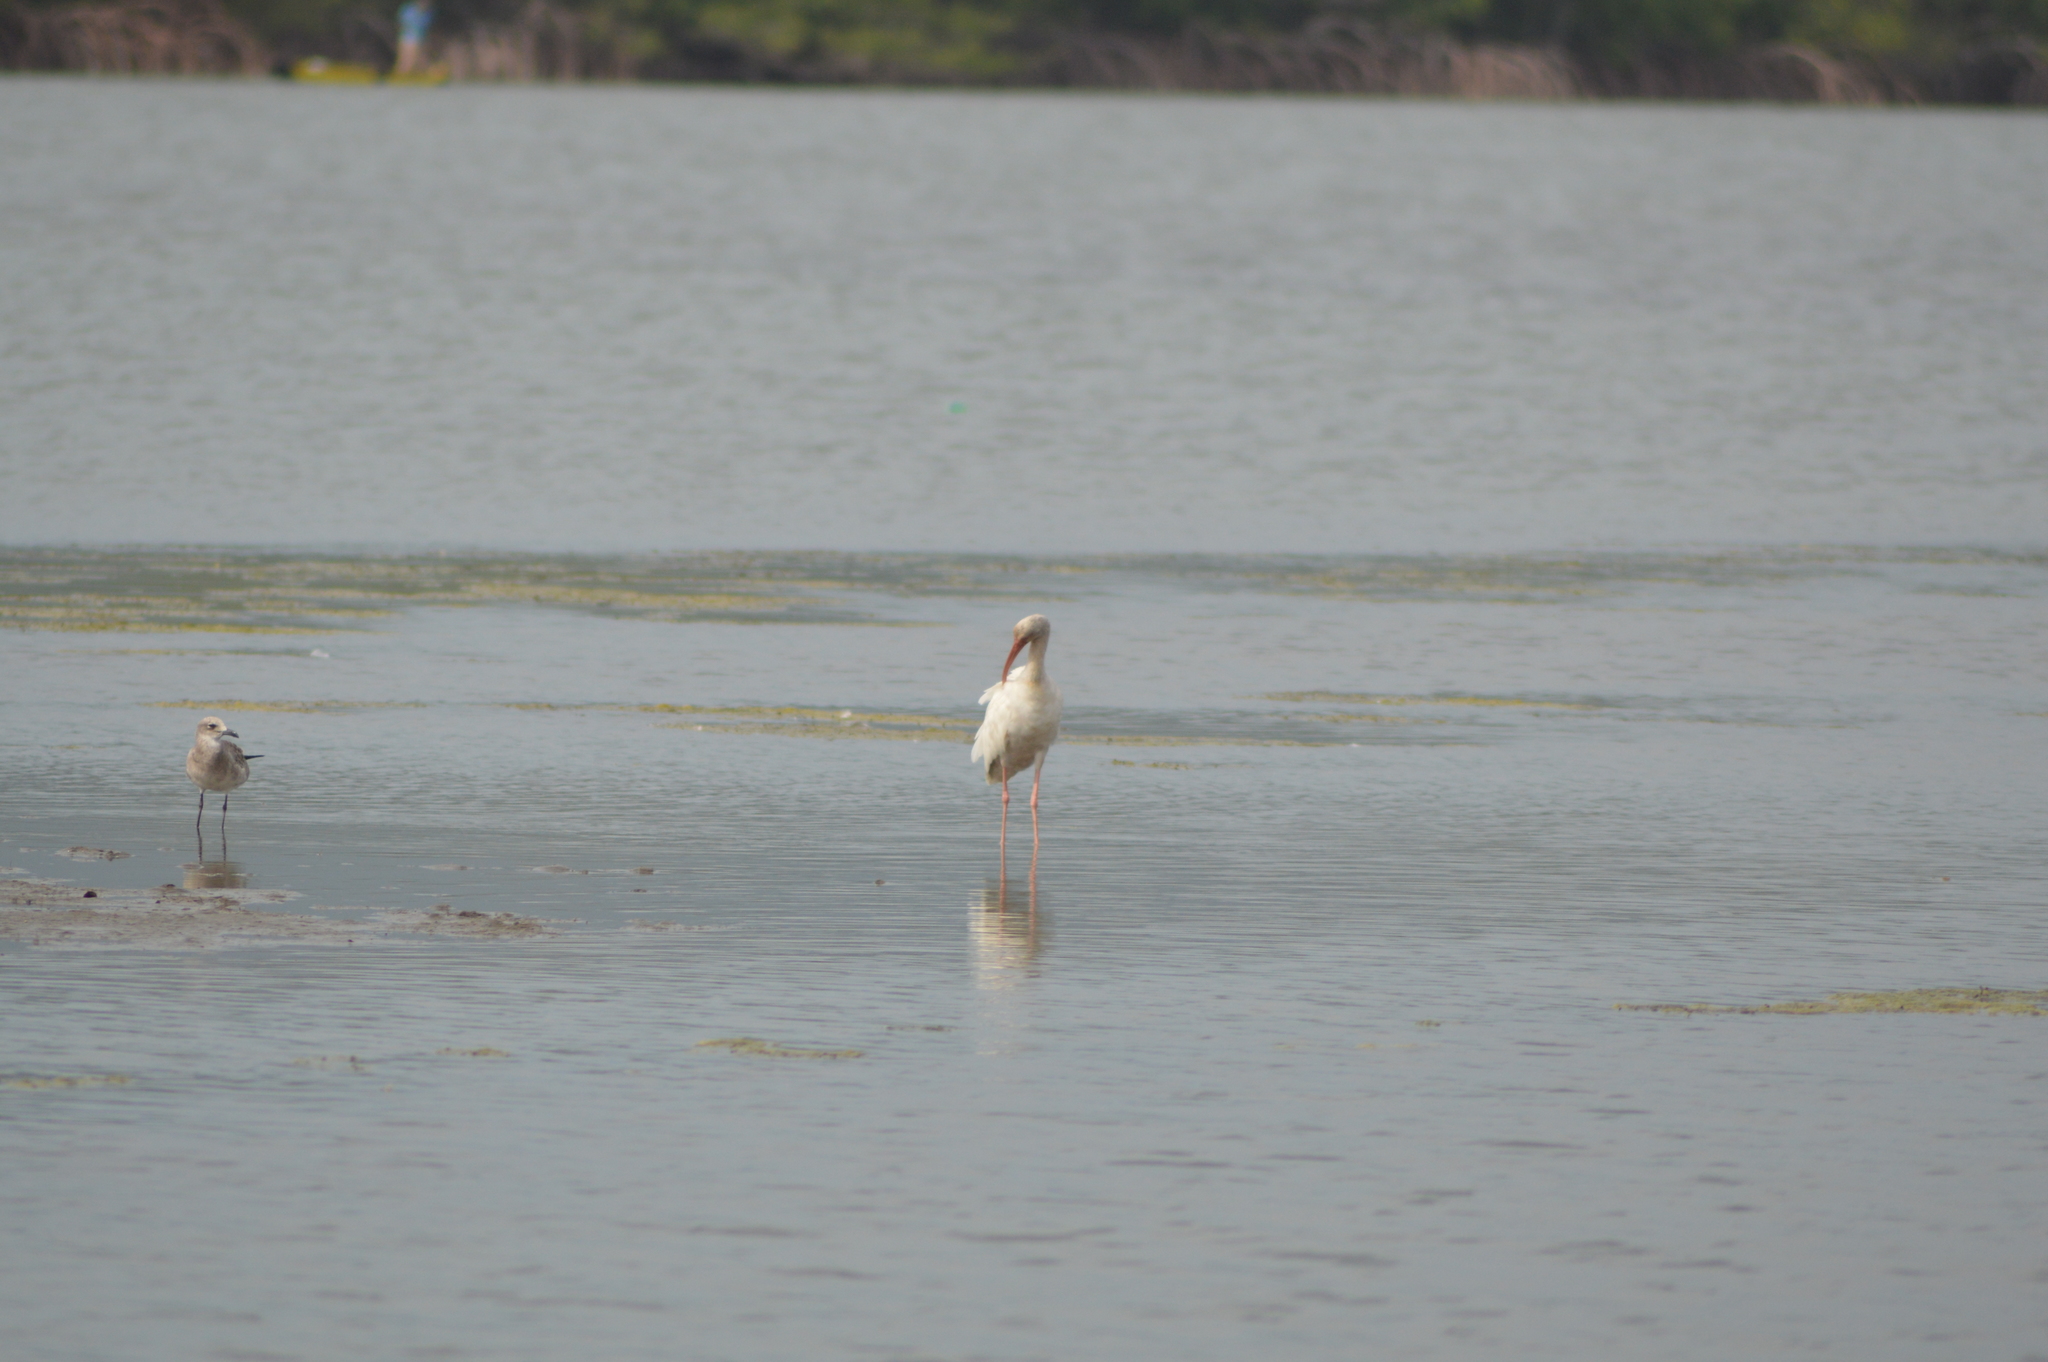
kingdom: Animalia
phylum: Chordata
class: Aves
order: Pelecaniformes
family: Threskiornithidae
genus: Eudocimus
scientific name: Eudocimus albus
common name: White ibis
